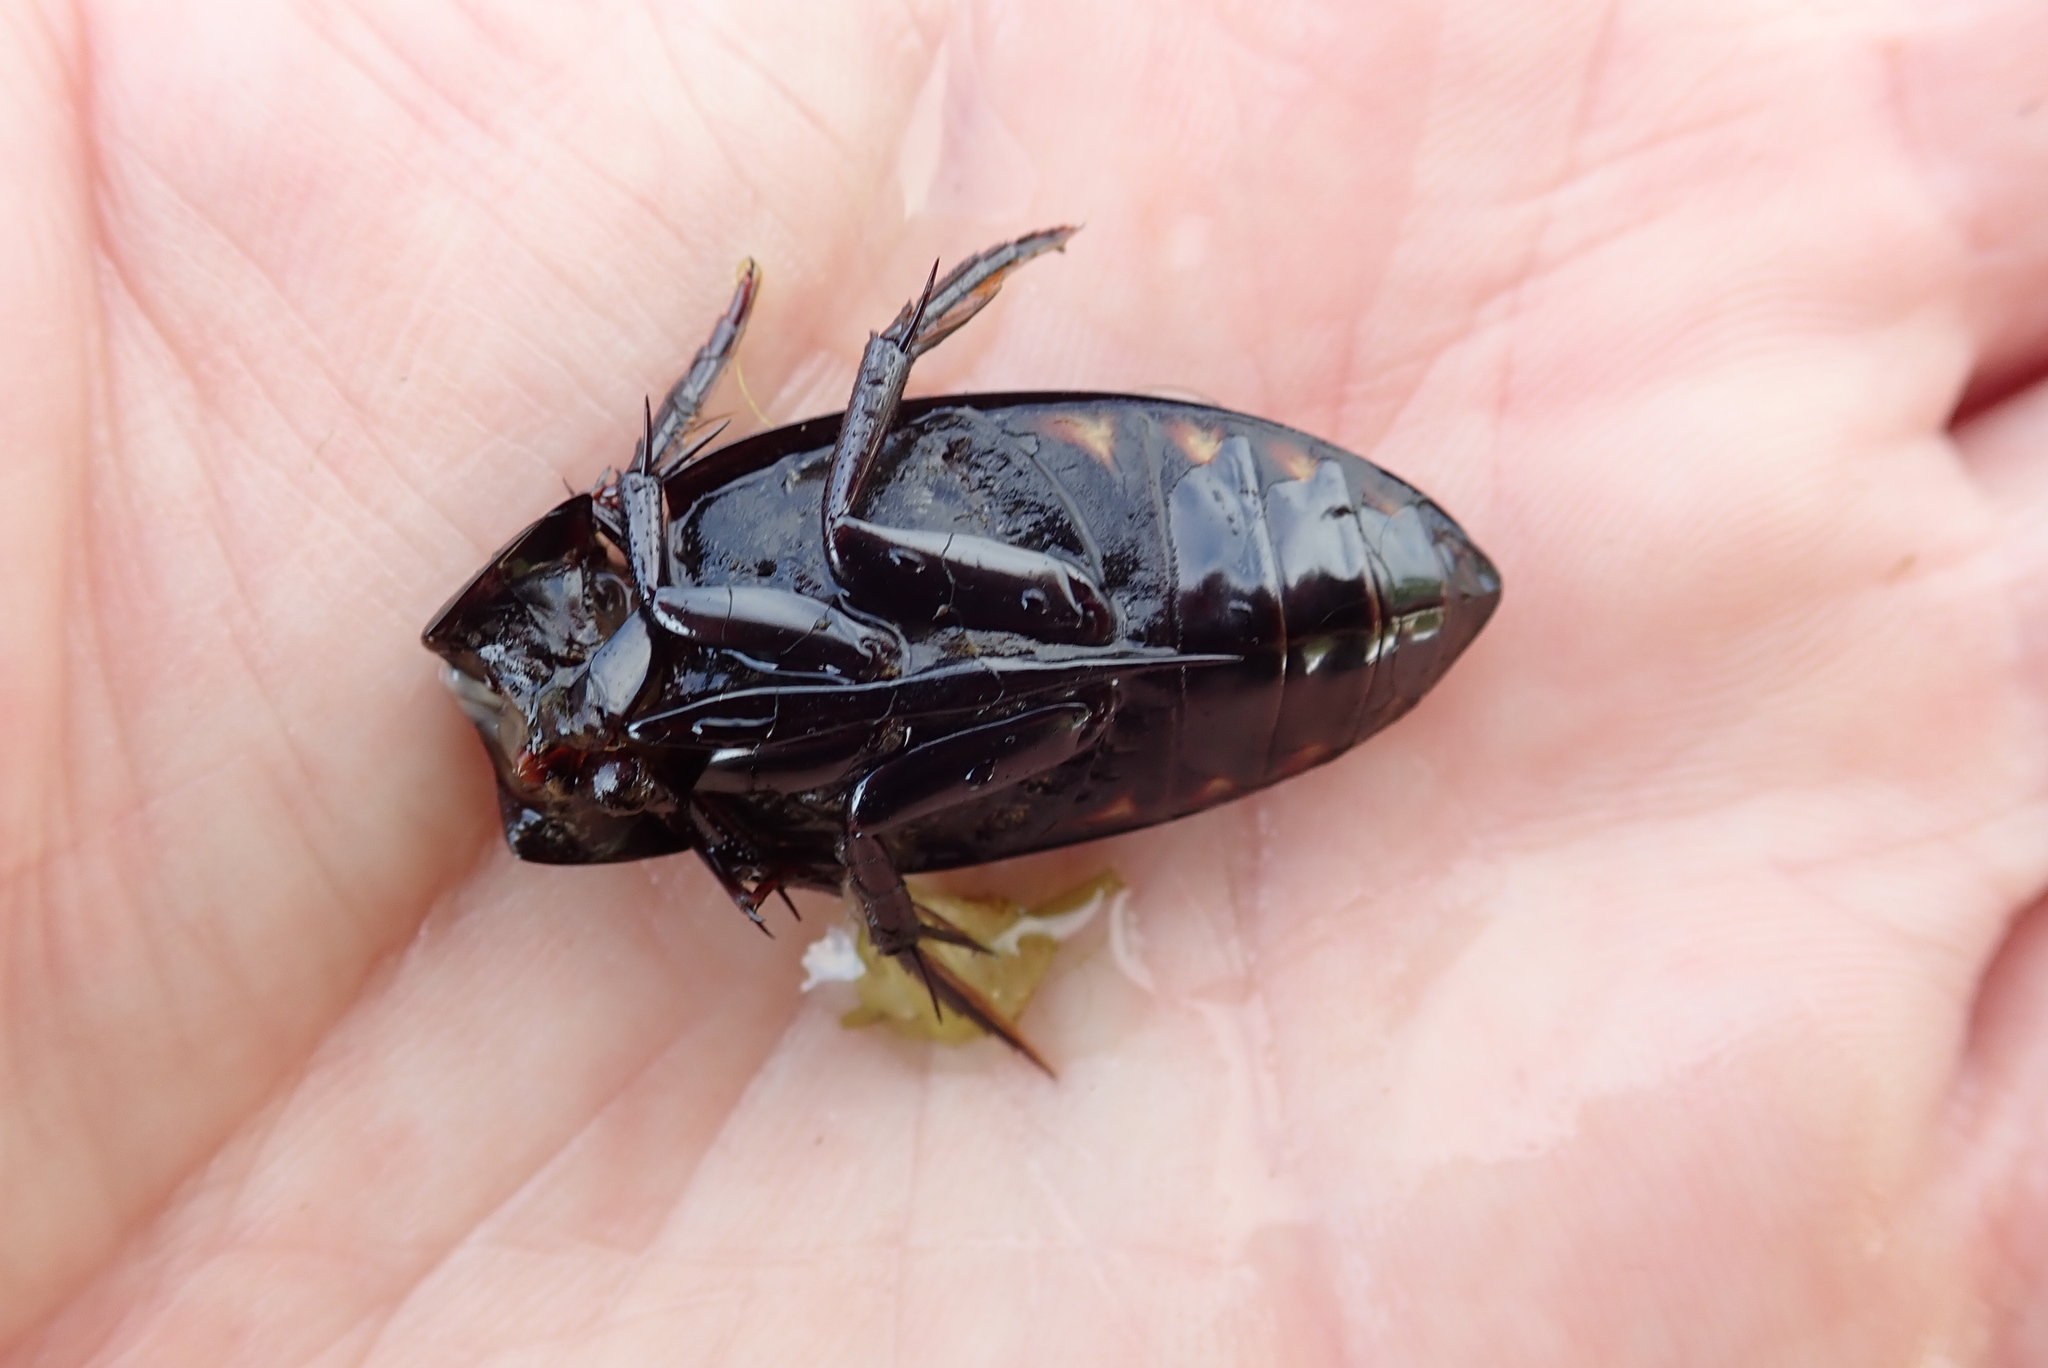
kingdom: Animalia
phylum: Arthropoda
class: Insecta
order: Coleoptera
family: Hydrophilidae
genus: Hydrophilus
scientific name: Hydrophilus triangularis
